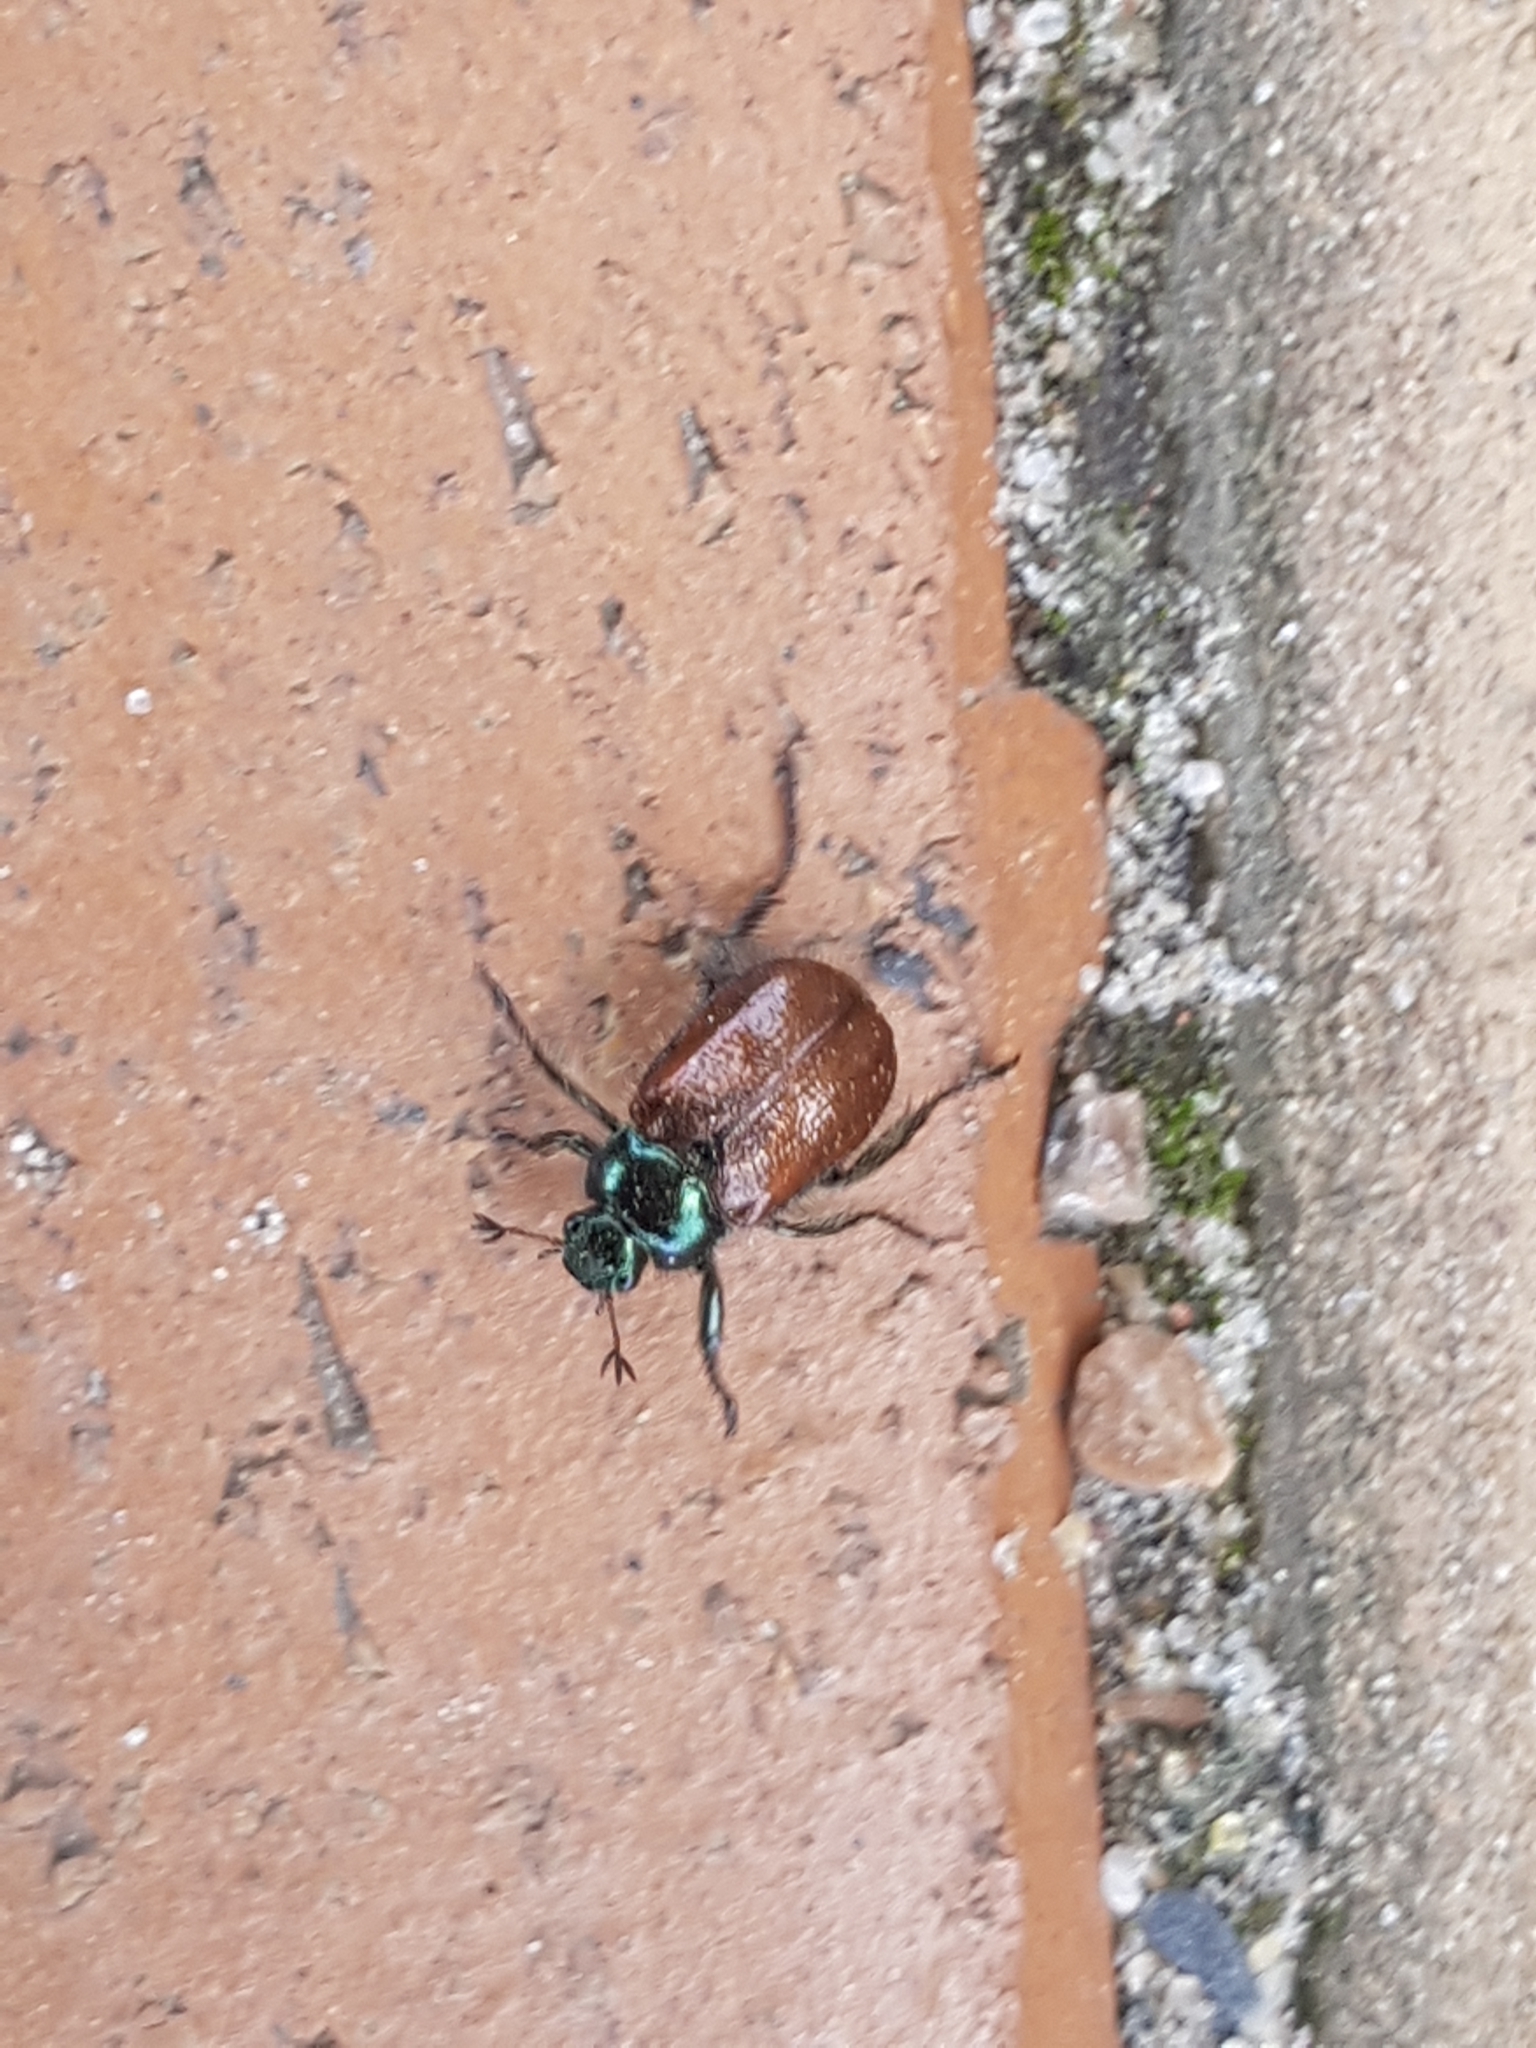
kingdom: Animalia
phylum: Arthropoda
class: Insecta
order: Coleoptera
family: Scarabaeidae
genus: Phyllopertha
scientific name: Phyllopertha horticola
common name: Garden chafer
